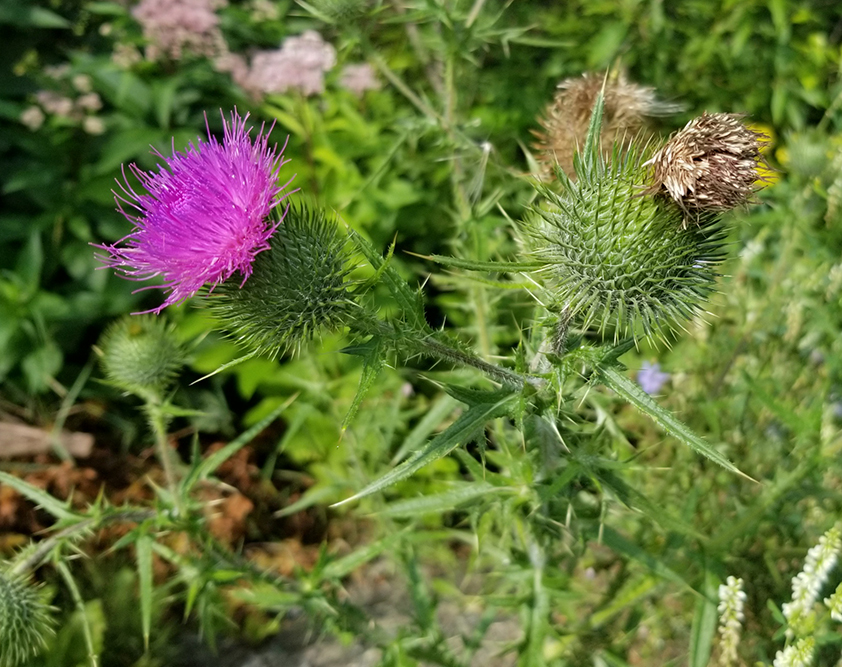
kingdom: Plantae
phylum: Tracheophyta
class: Magnoliopsida
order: Asterales
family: Asteraceae
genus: Cirsium
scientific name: Cirsium vulgare
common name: Bull thistle
